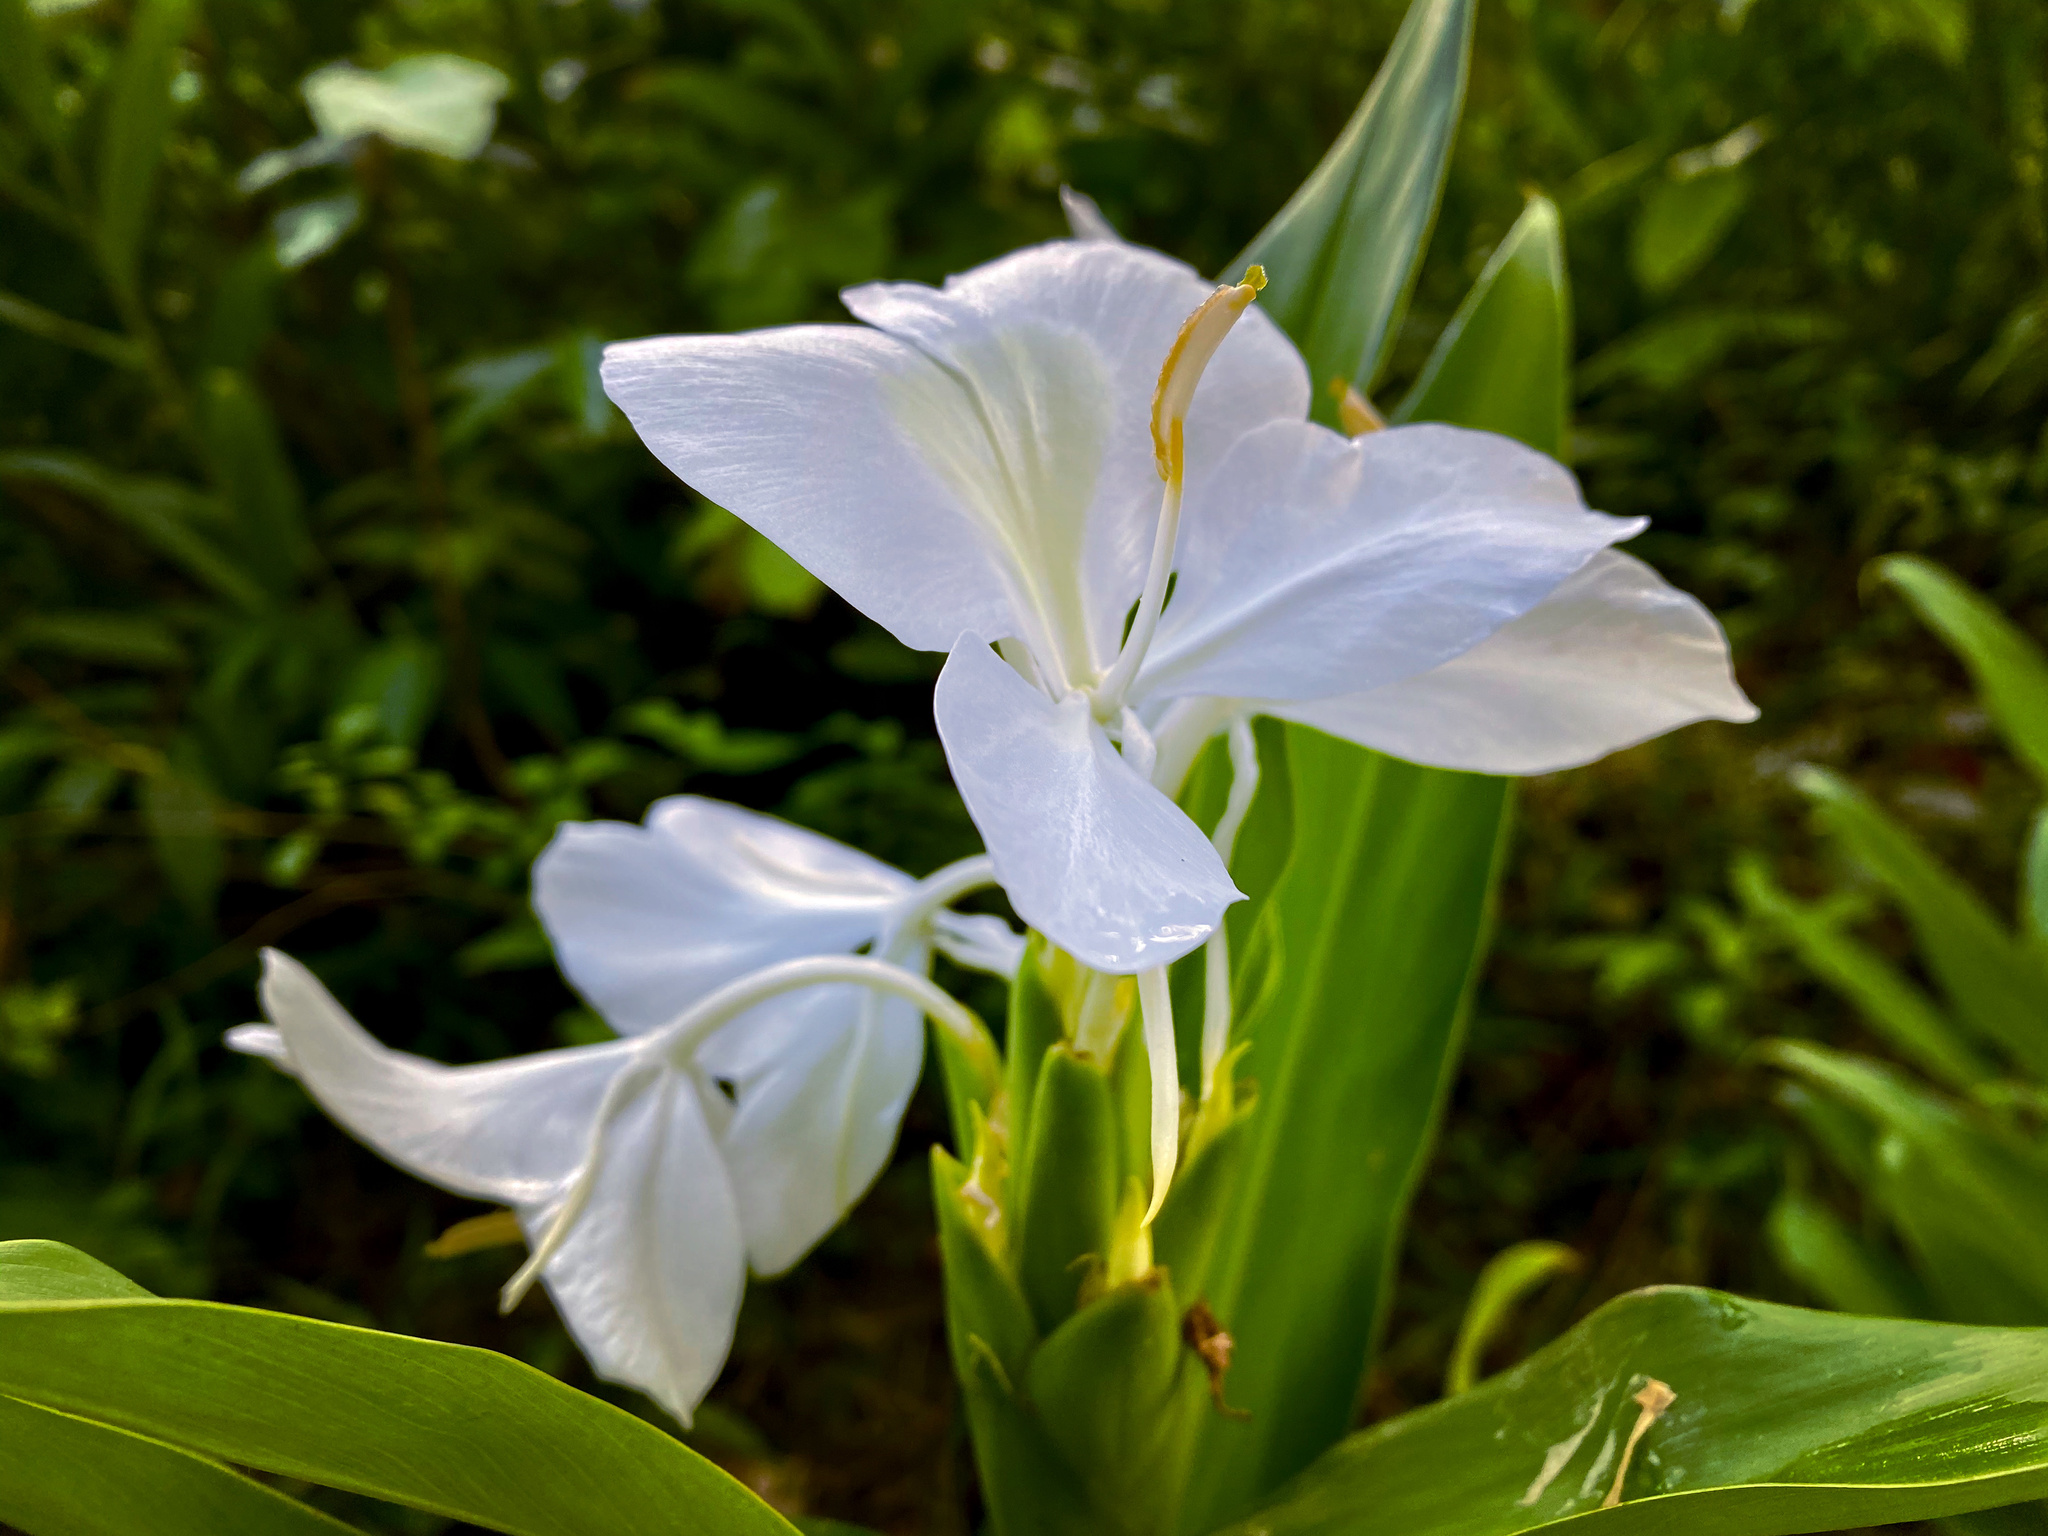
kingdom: Plantae
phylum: Tracheophyta
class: Liliopsida
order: Zingiberales
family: Zingiberaceae
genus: Hedychium
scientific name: Hedychium coronarium
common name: White garland-lily
